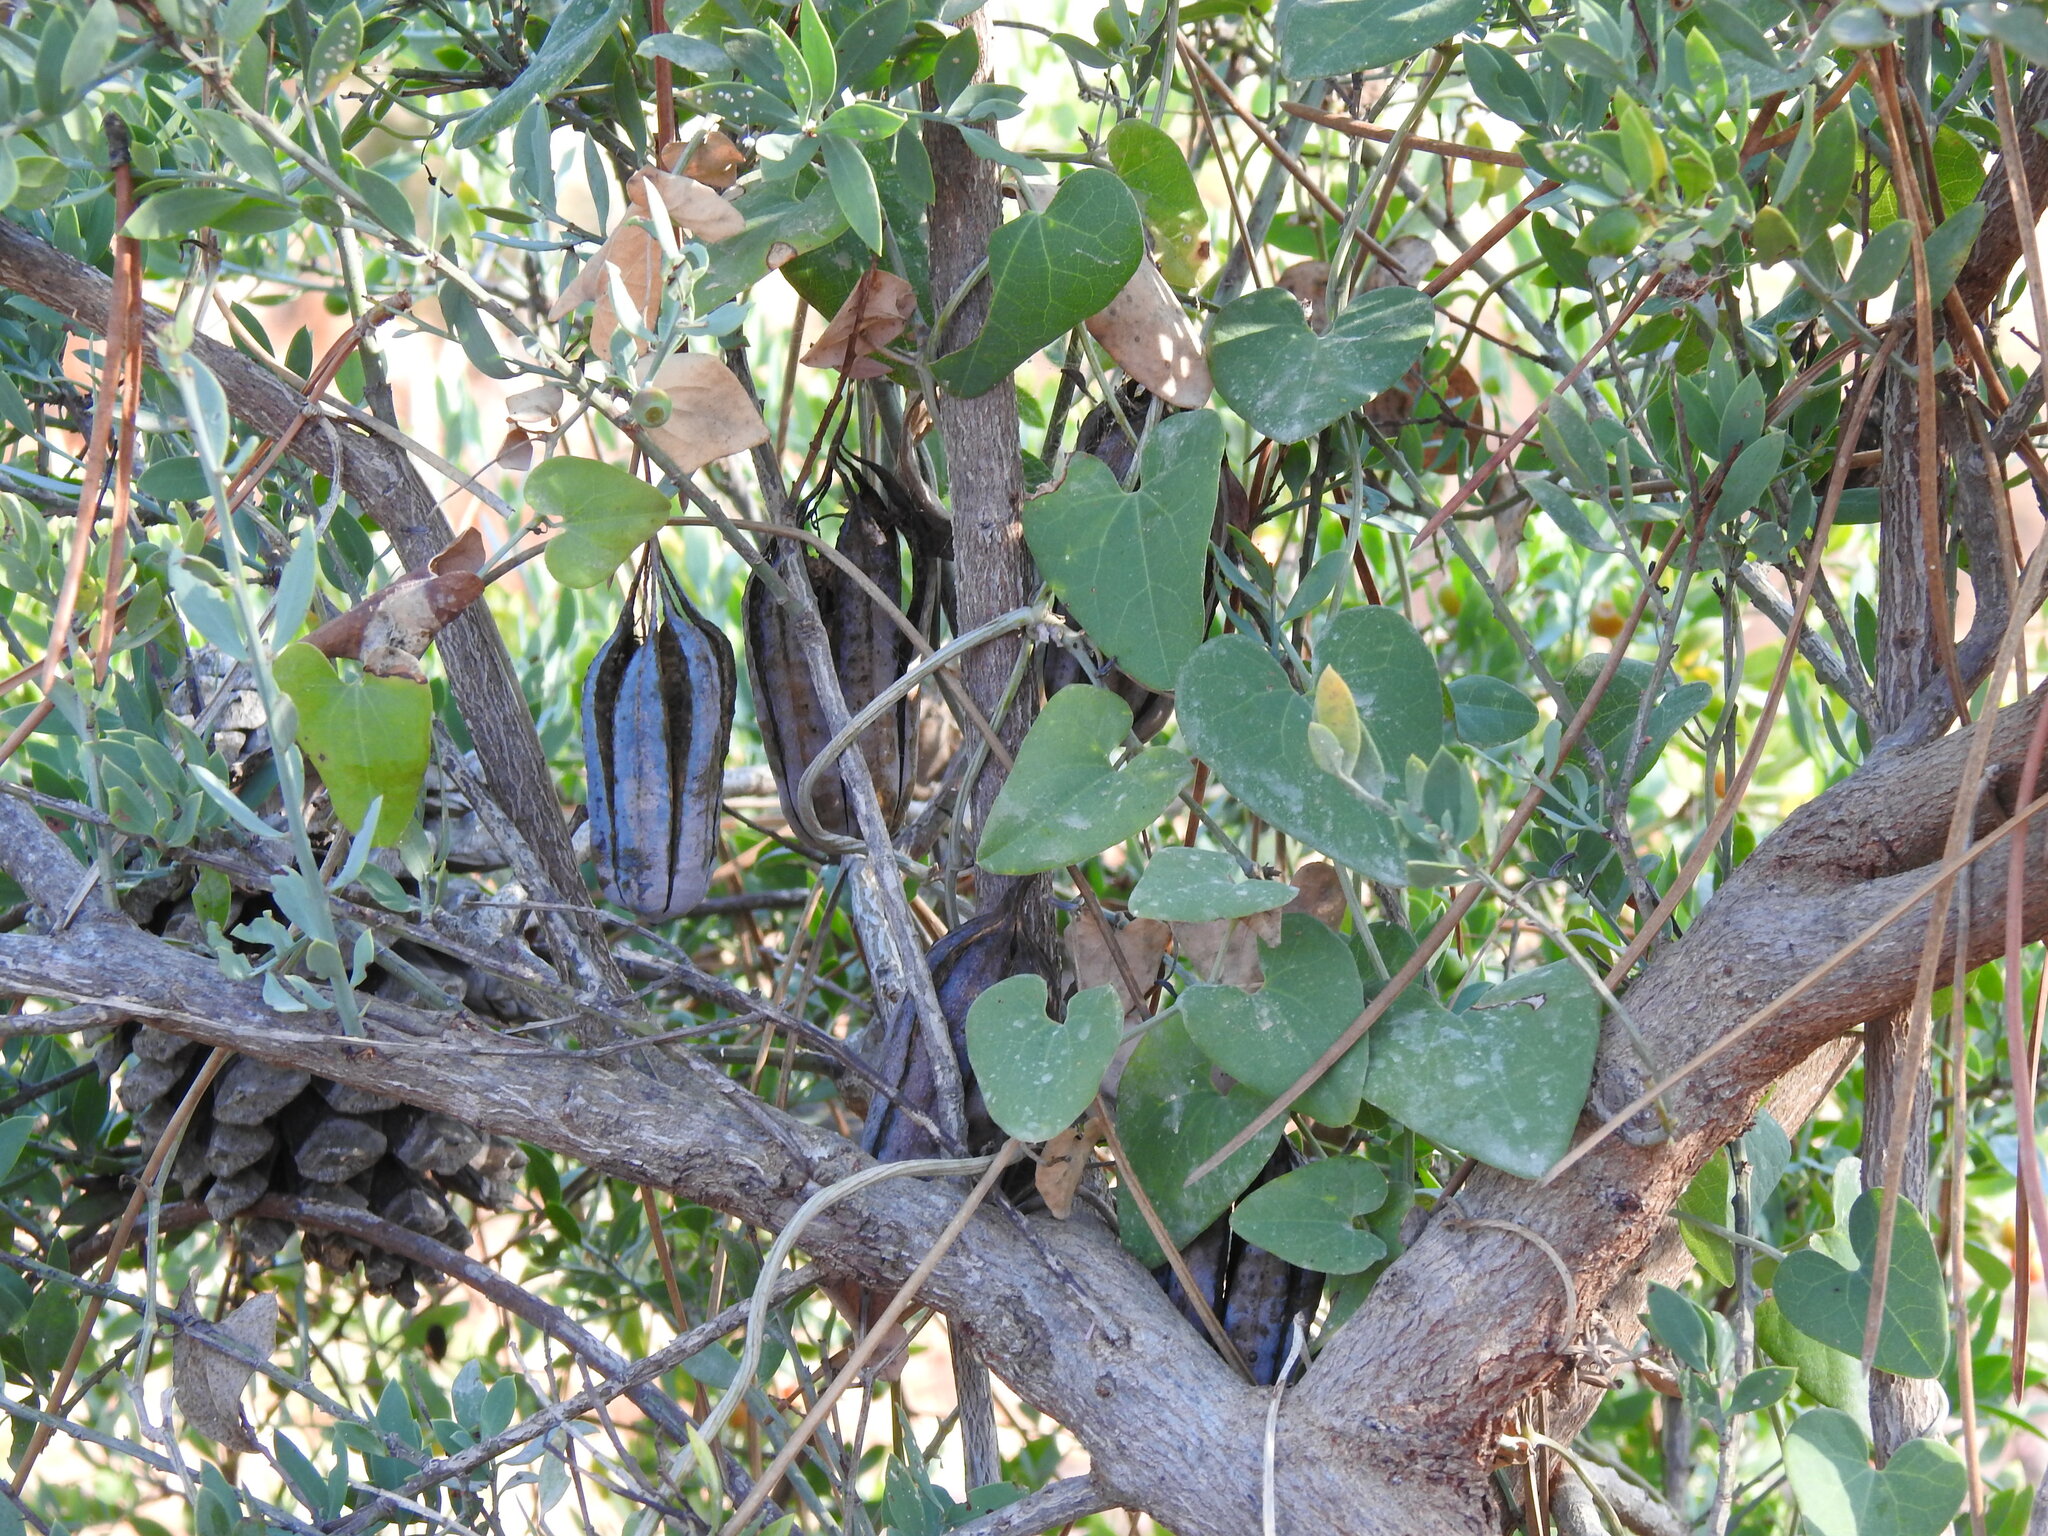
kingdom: Plantae
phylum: Tracheophyta
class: Magnoliopsida
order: Piperales
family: Aristolochiaceae
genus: Aristolochia
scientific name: Aristolochia baetica
